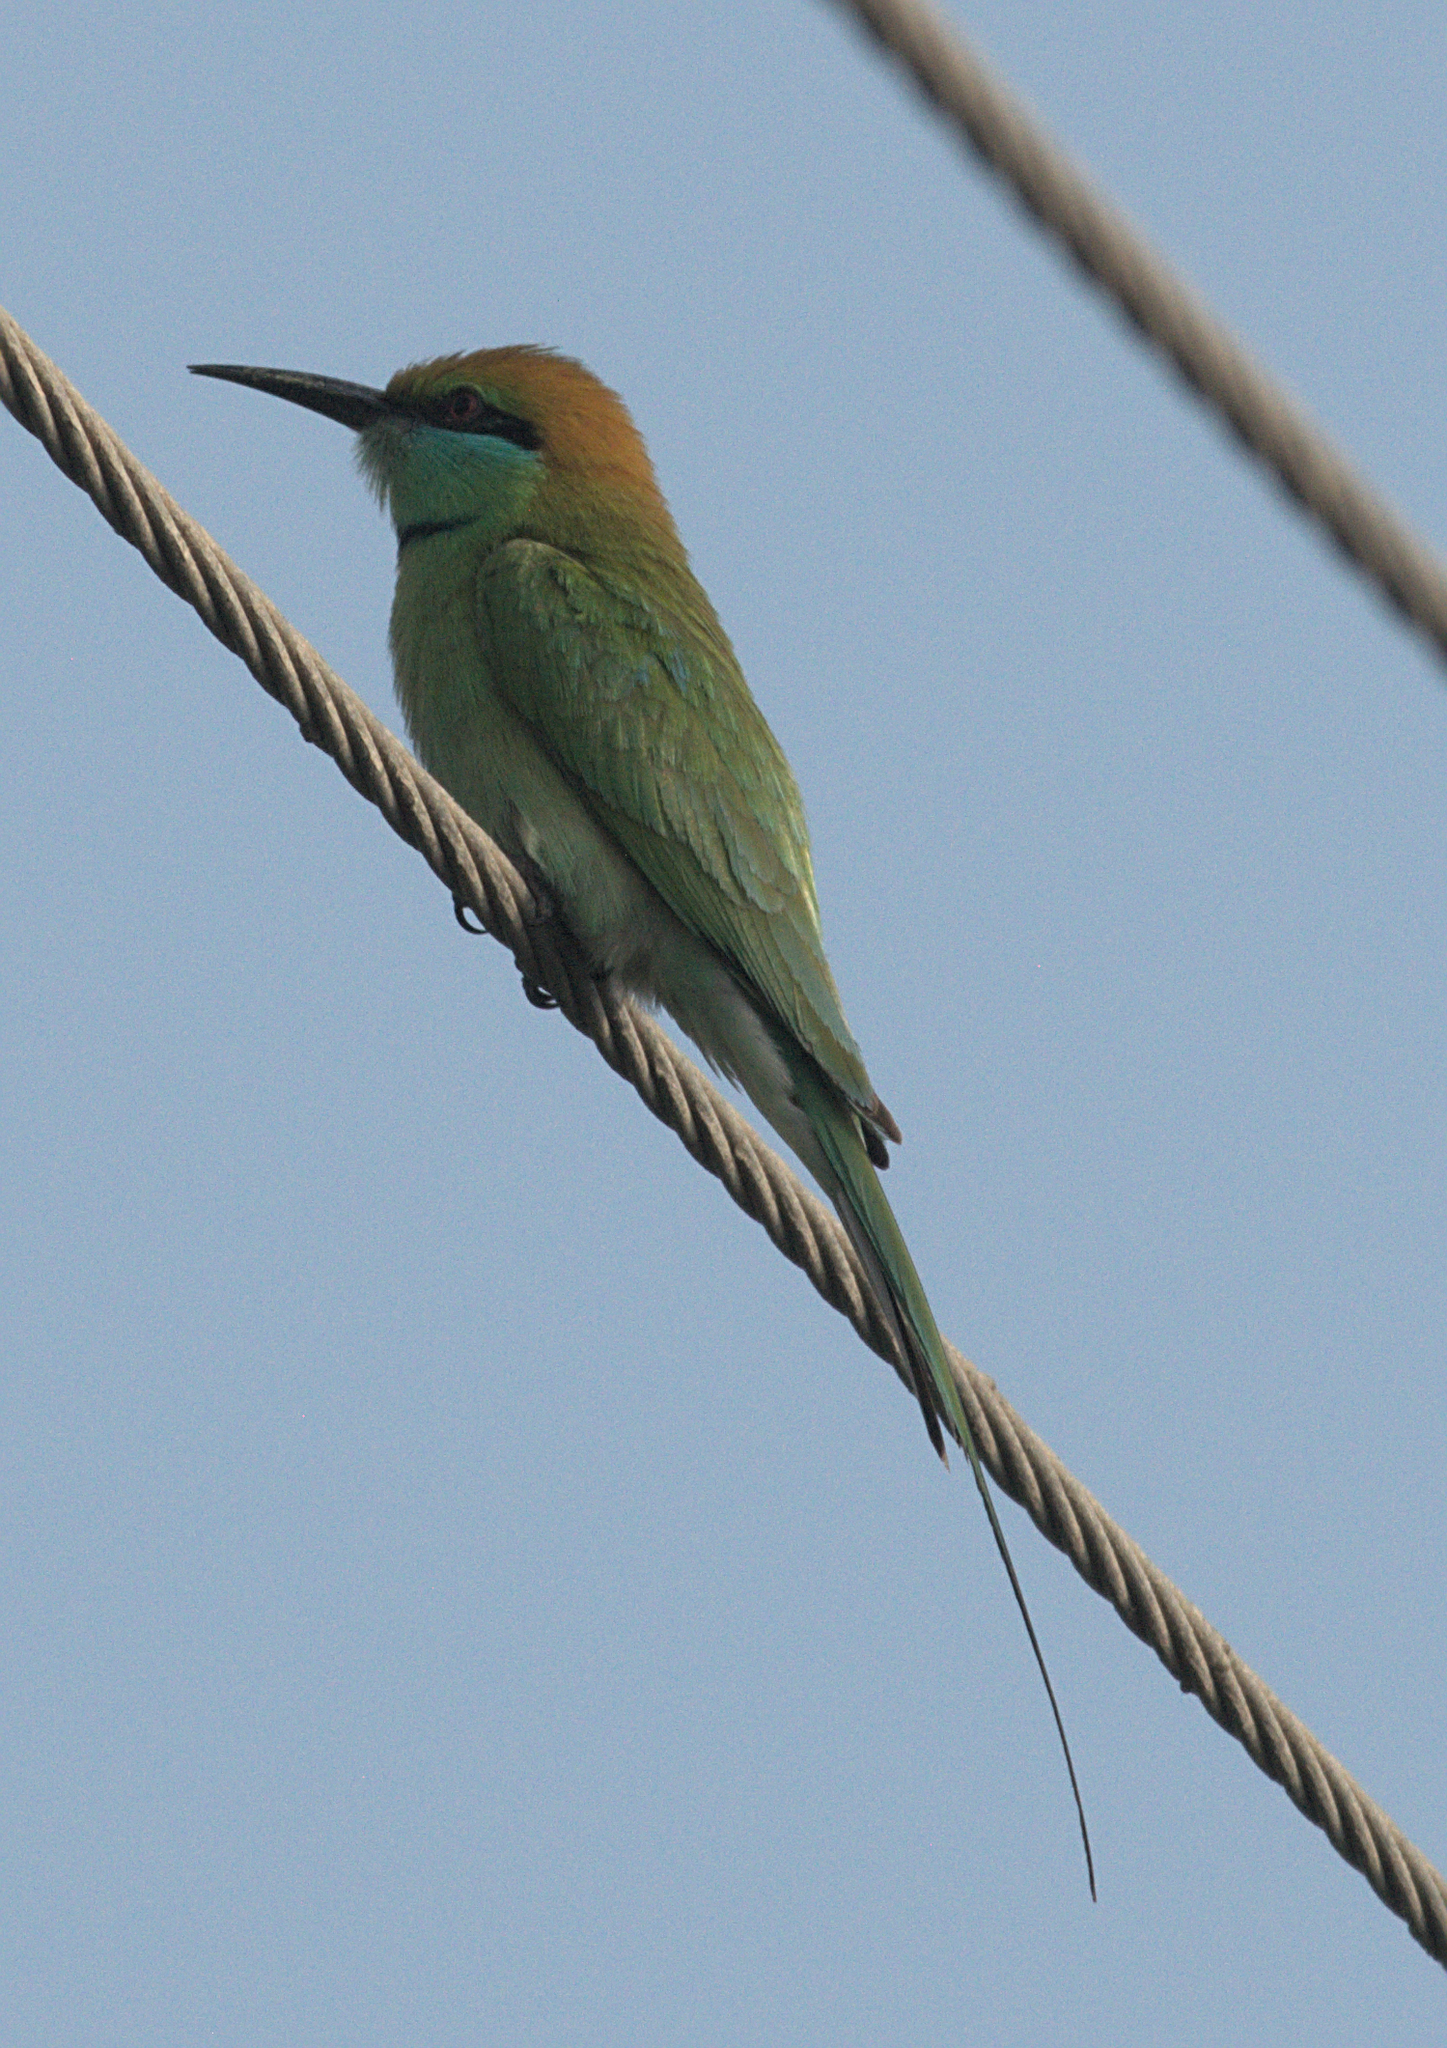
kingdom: Animalia
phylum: Chordata
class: Aves
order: Coraciiformes
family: Meropidae
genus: Merops
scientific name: Merops orientalis
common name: Green bee-eater
